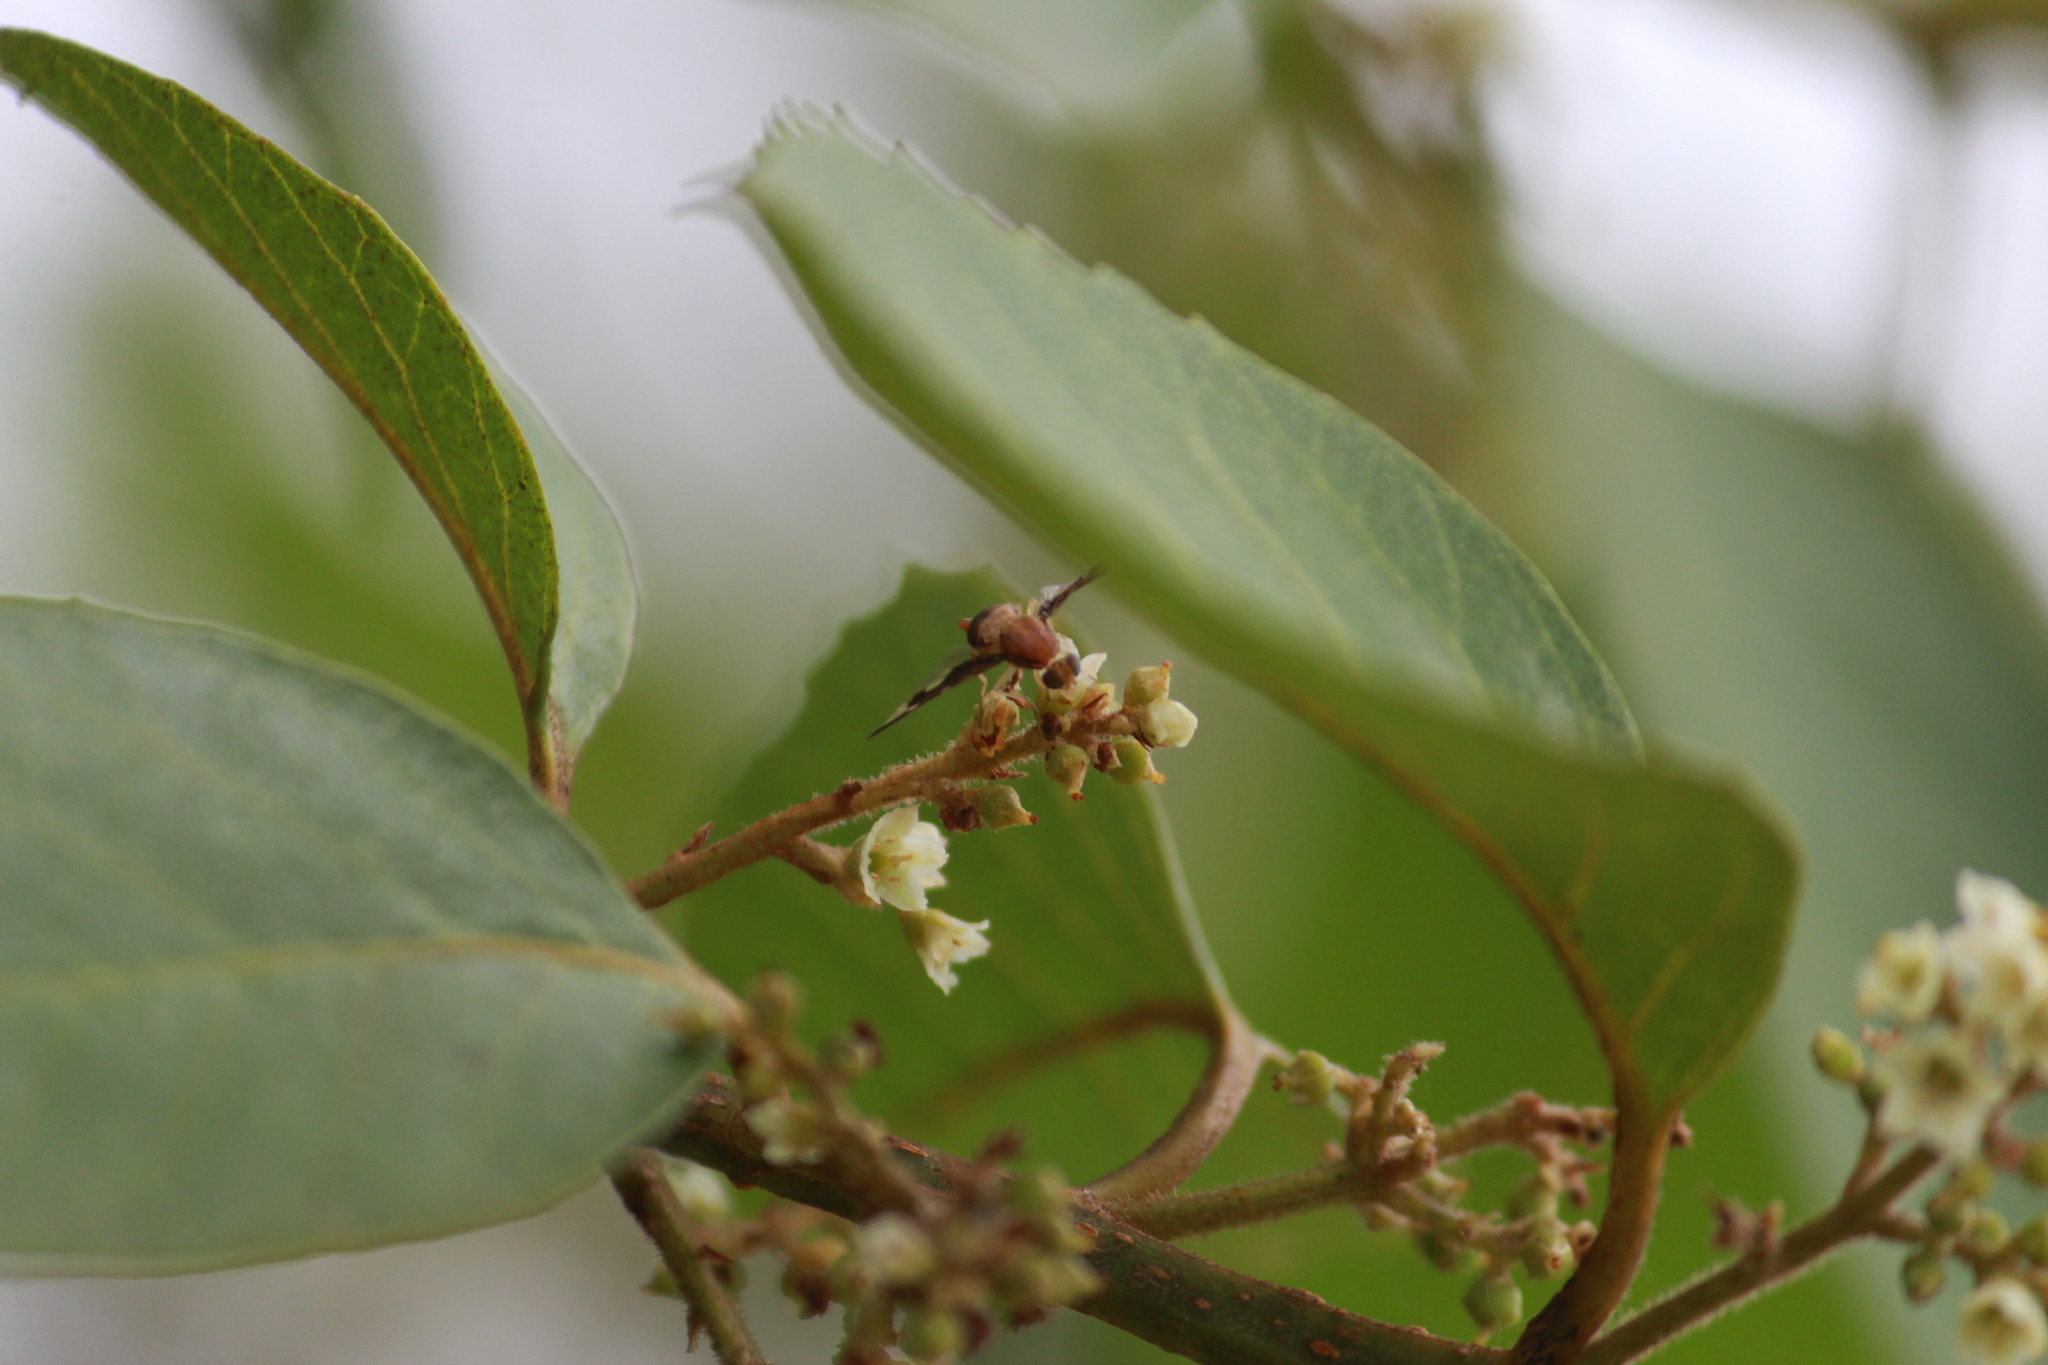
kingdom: Animalia
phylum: Arthropoda
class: Insecta
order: Diptera
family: Tephritidae
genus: Ocnerioxa
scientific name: Ocnerioxa sinuata
